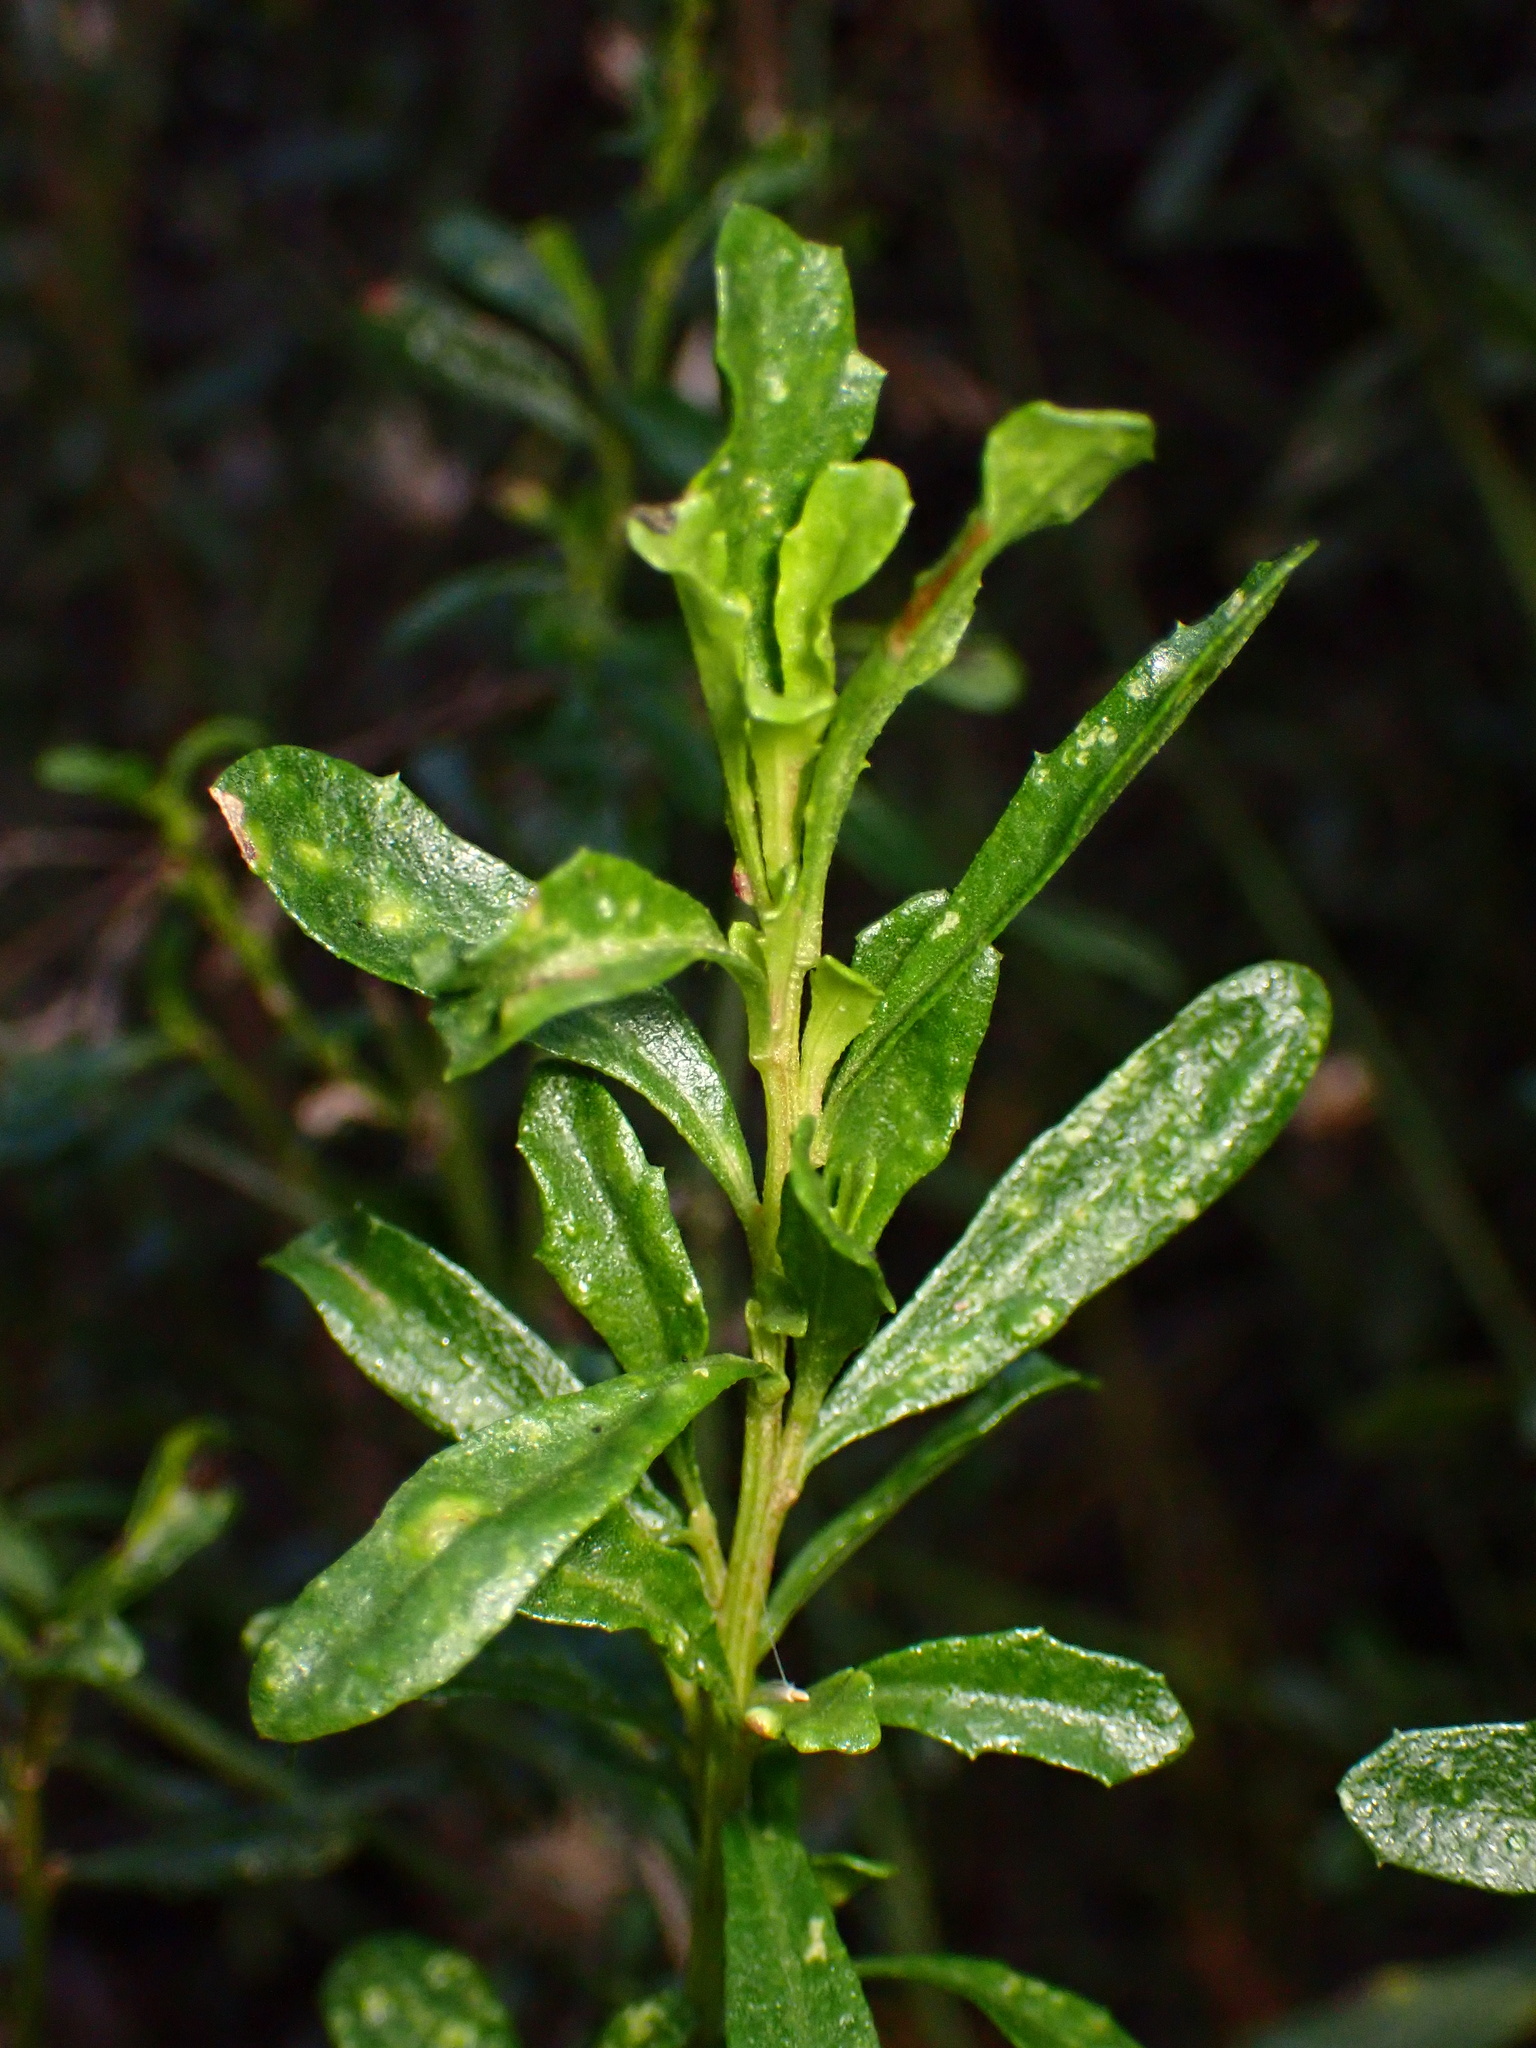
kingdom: Plantae
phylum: Tracheophyta
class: Magnoliopsida
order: Asterales
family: Asteraceae
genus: Baccharis
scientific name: Baccharis pilularis
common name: Coyotebrush
